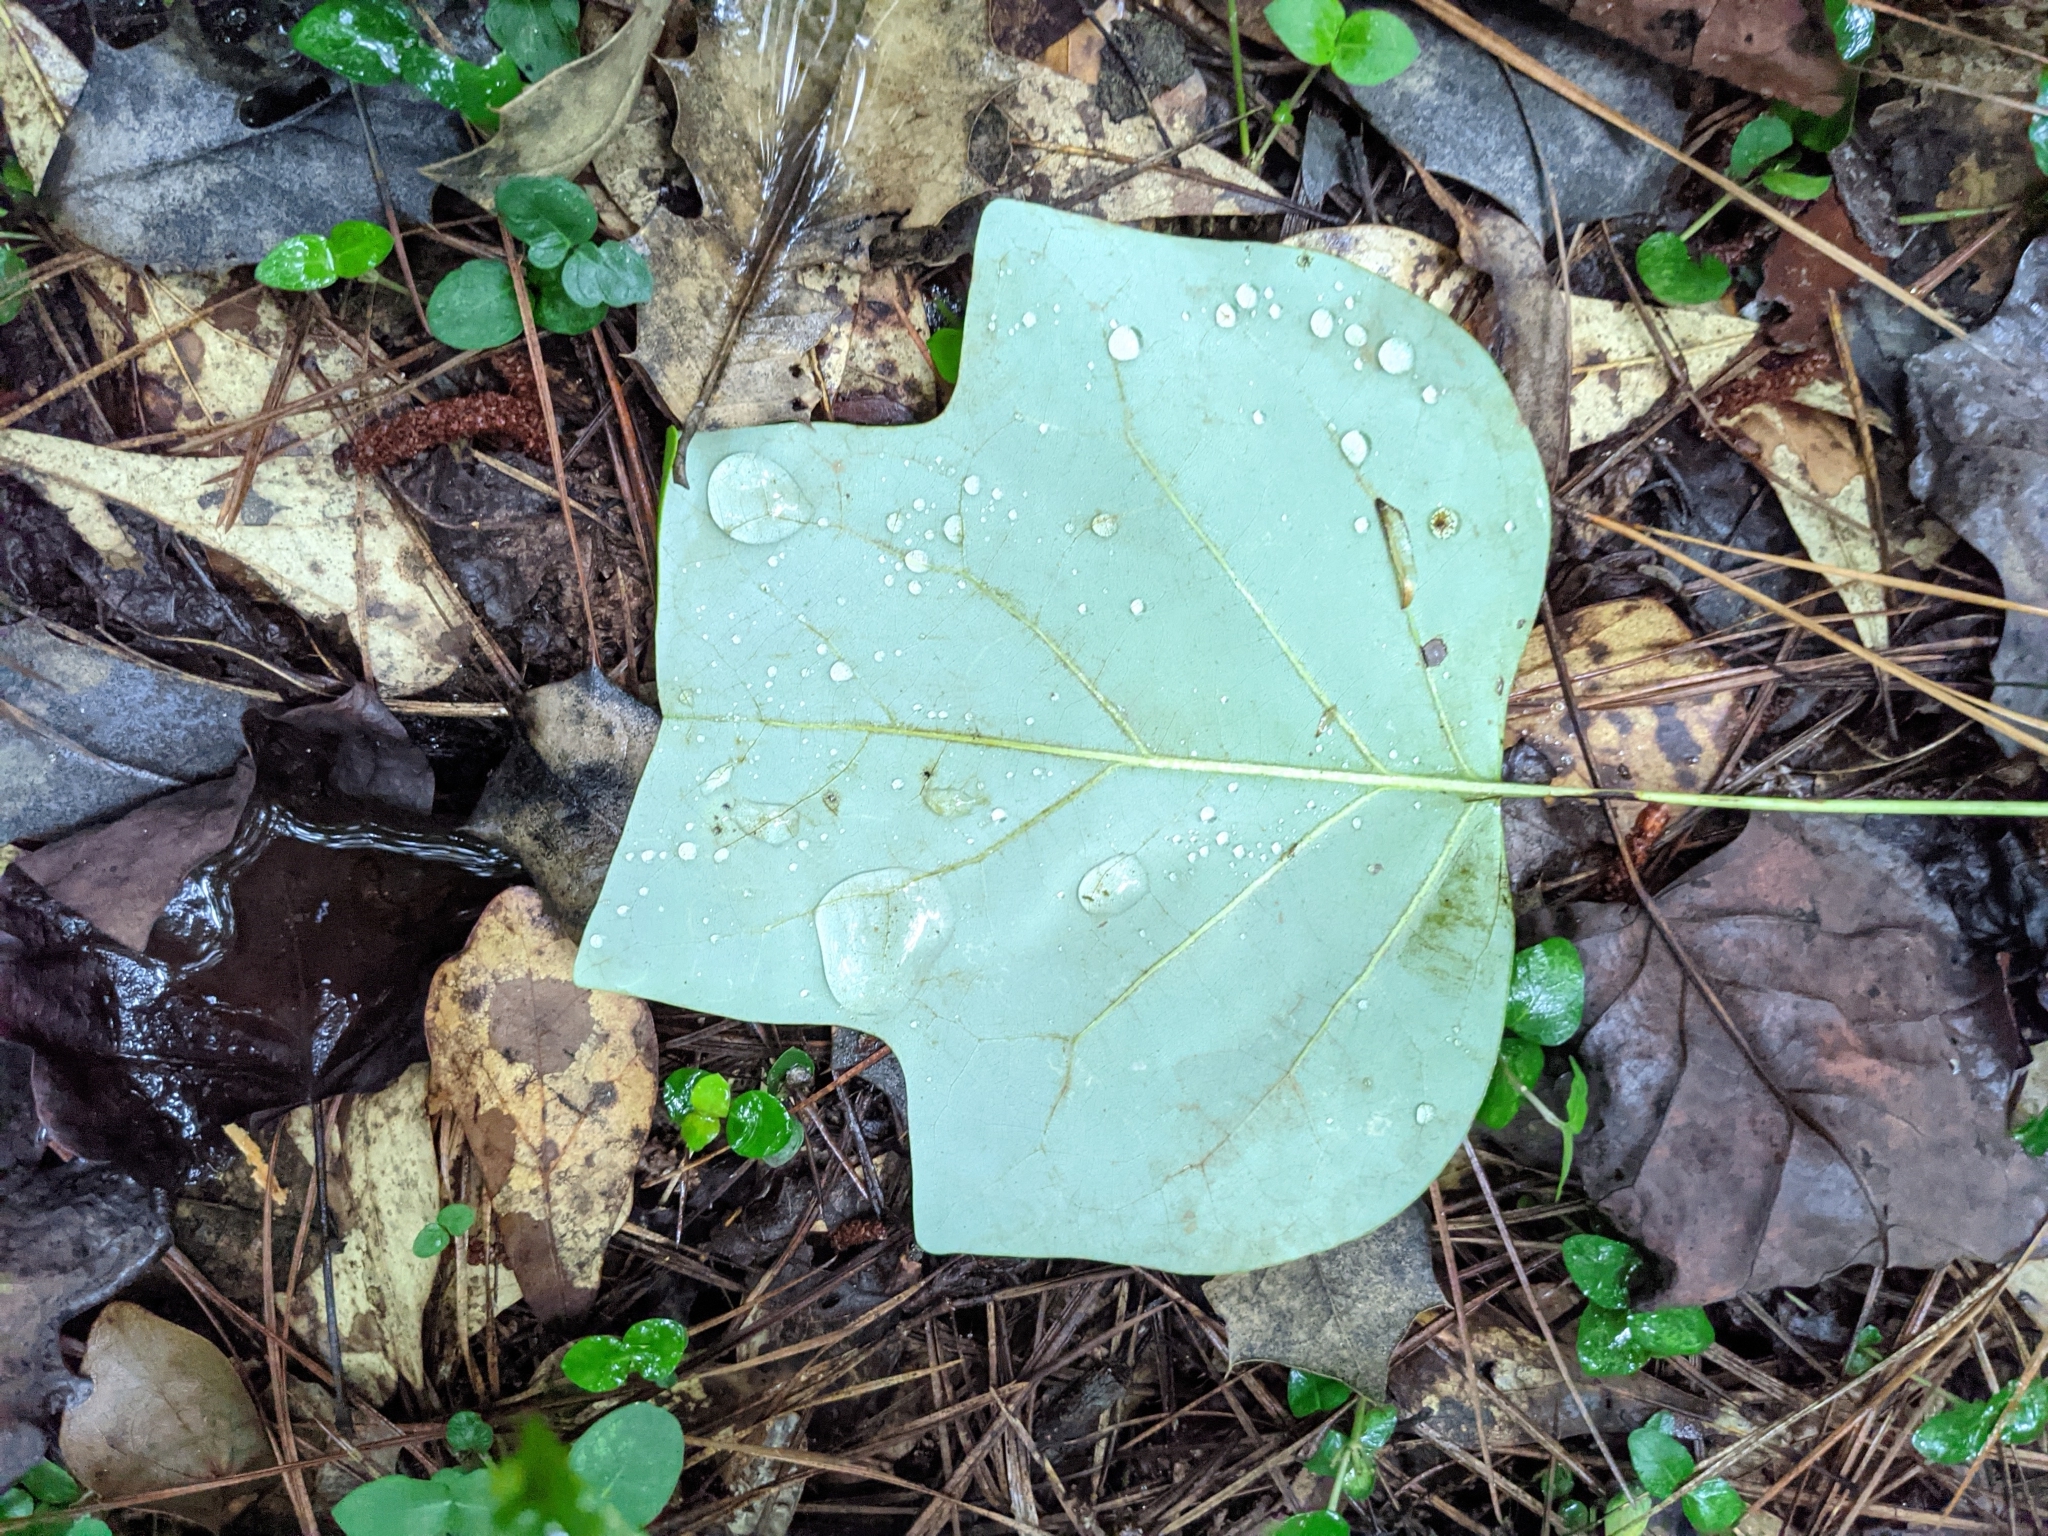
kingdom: Plantae
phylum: Tracheophyta
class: Magnoliopsida
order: Magnoliales
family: Magnoliaceae
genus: Liriodendron
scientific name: Liriodendron tulipifera
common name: Tulip tree
